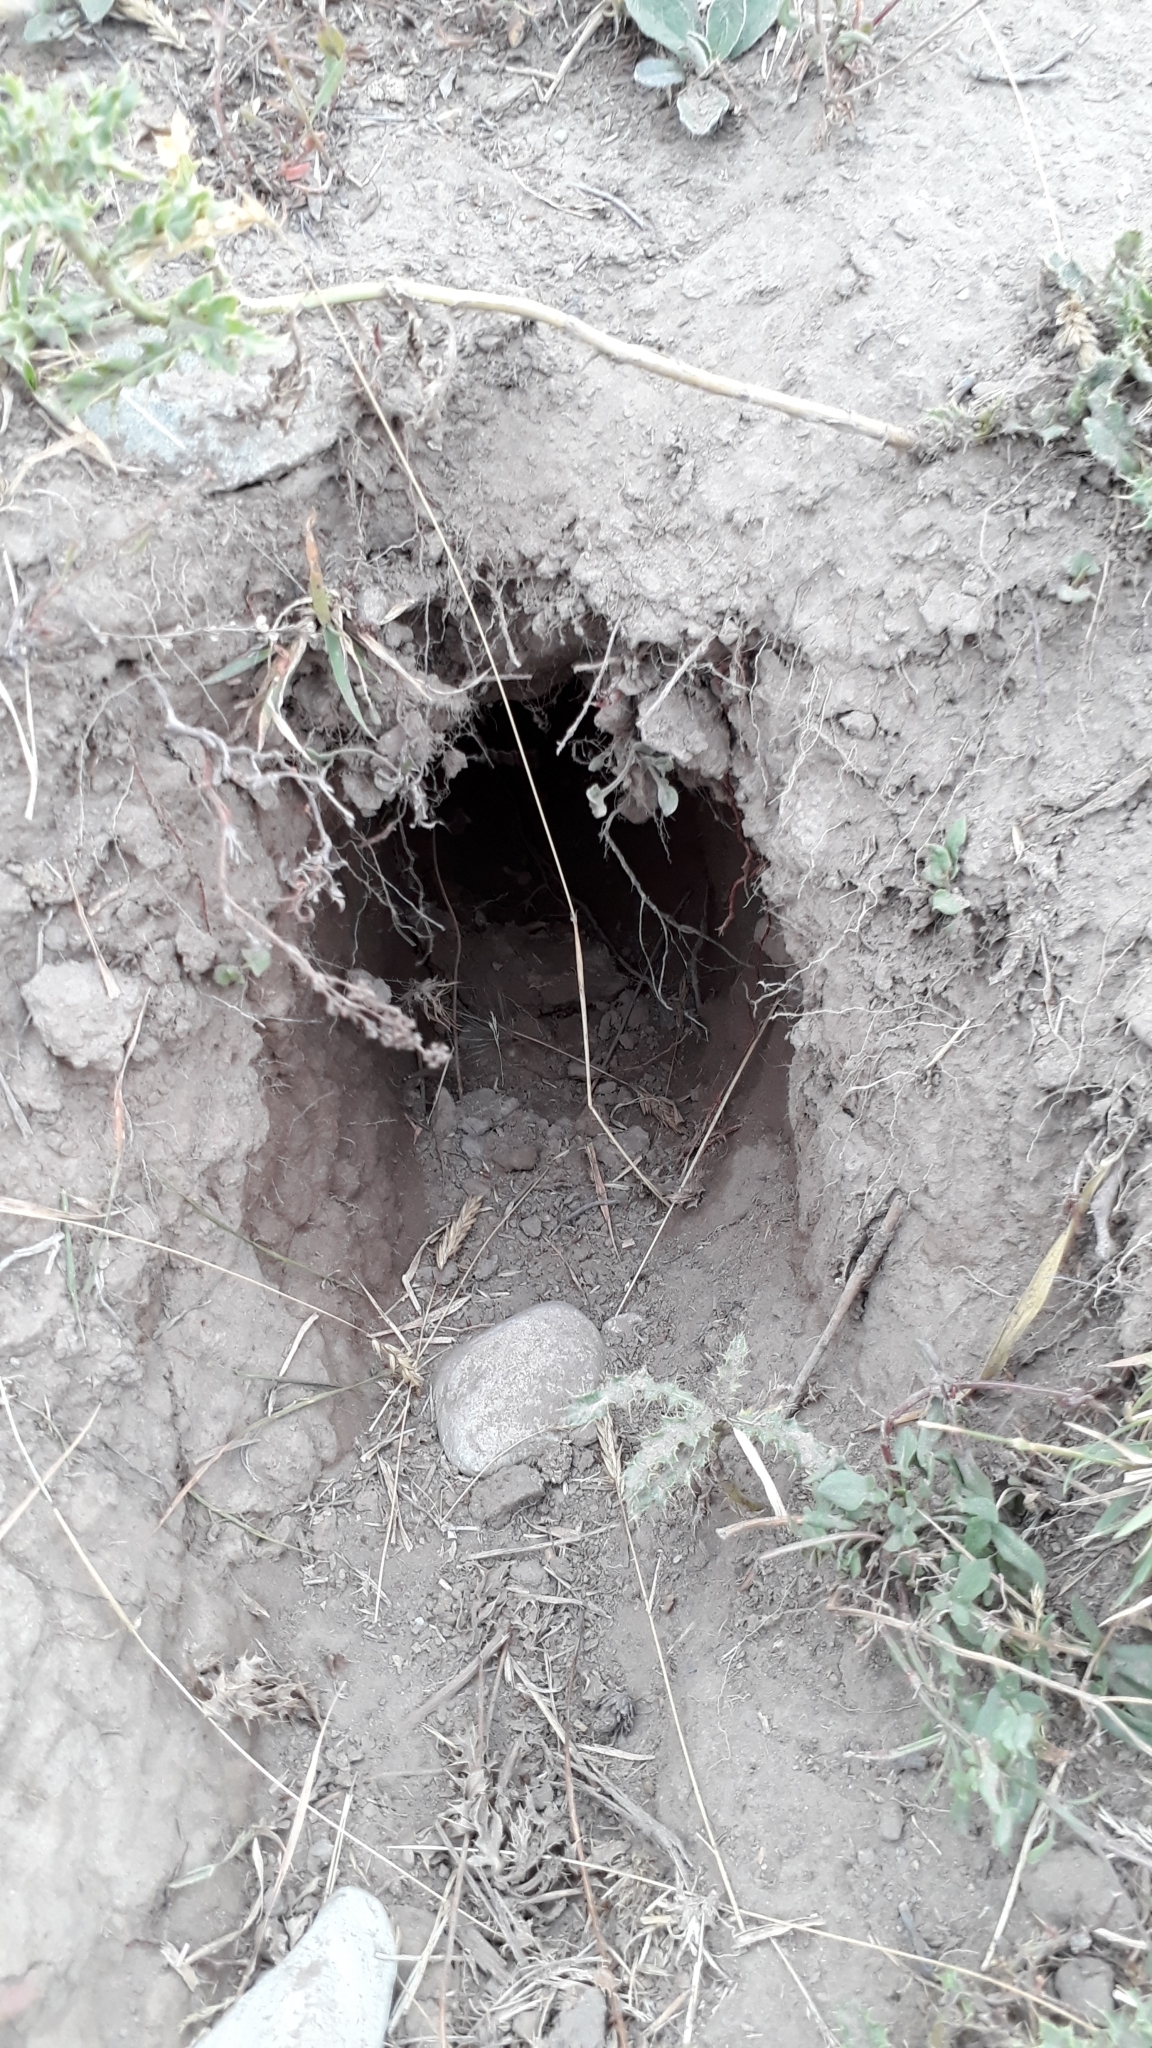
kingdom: Animalia
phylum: Chordata
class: Mammalia
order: Lagomorpha
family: Leporidae
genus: Oryctolagus
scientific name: Oryctolagus cuniculus
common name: European rabbit
